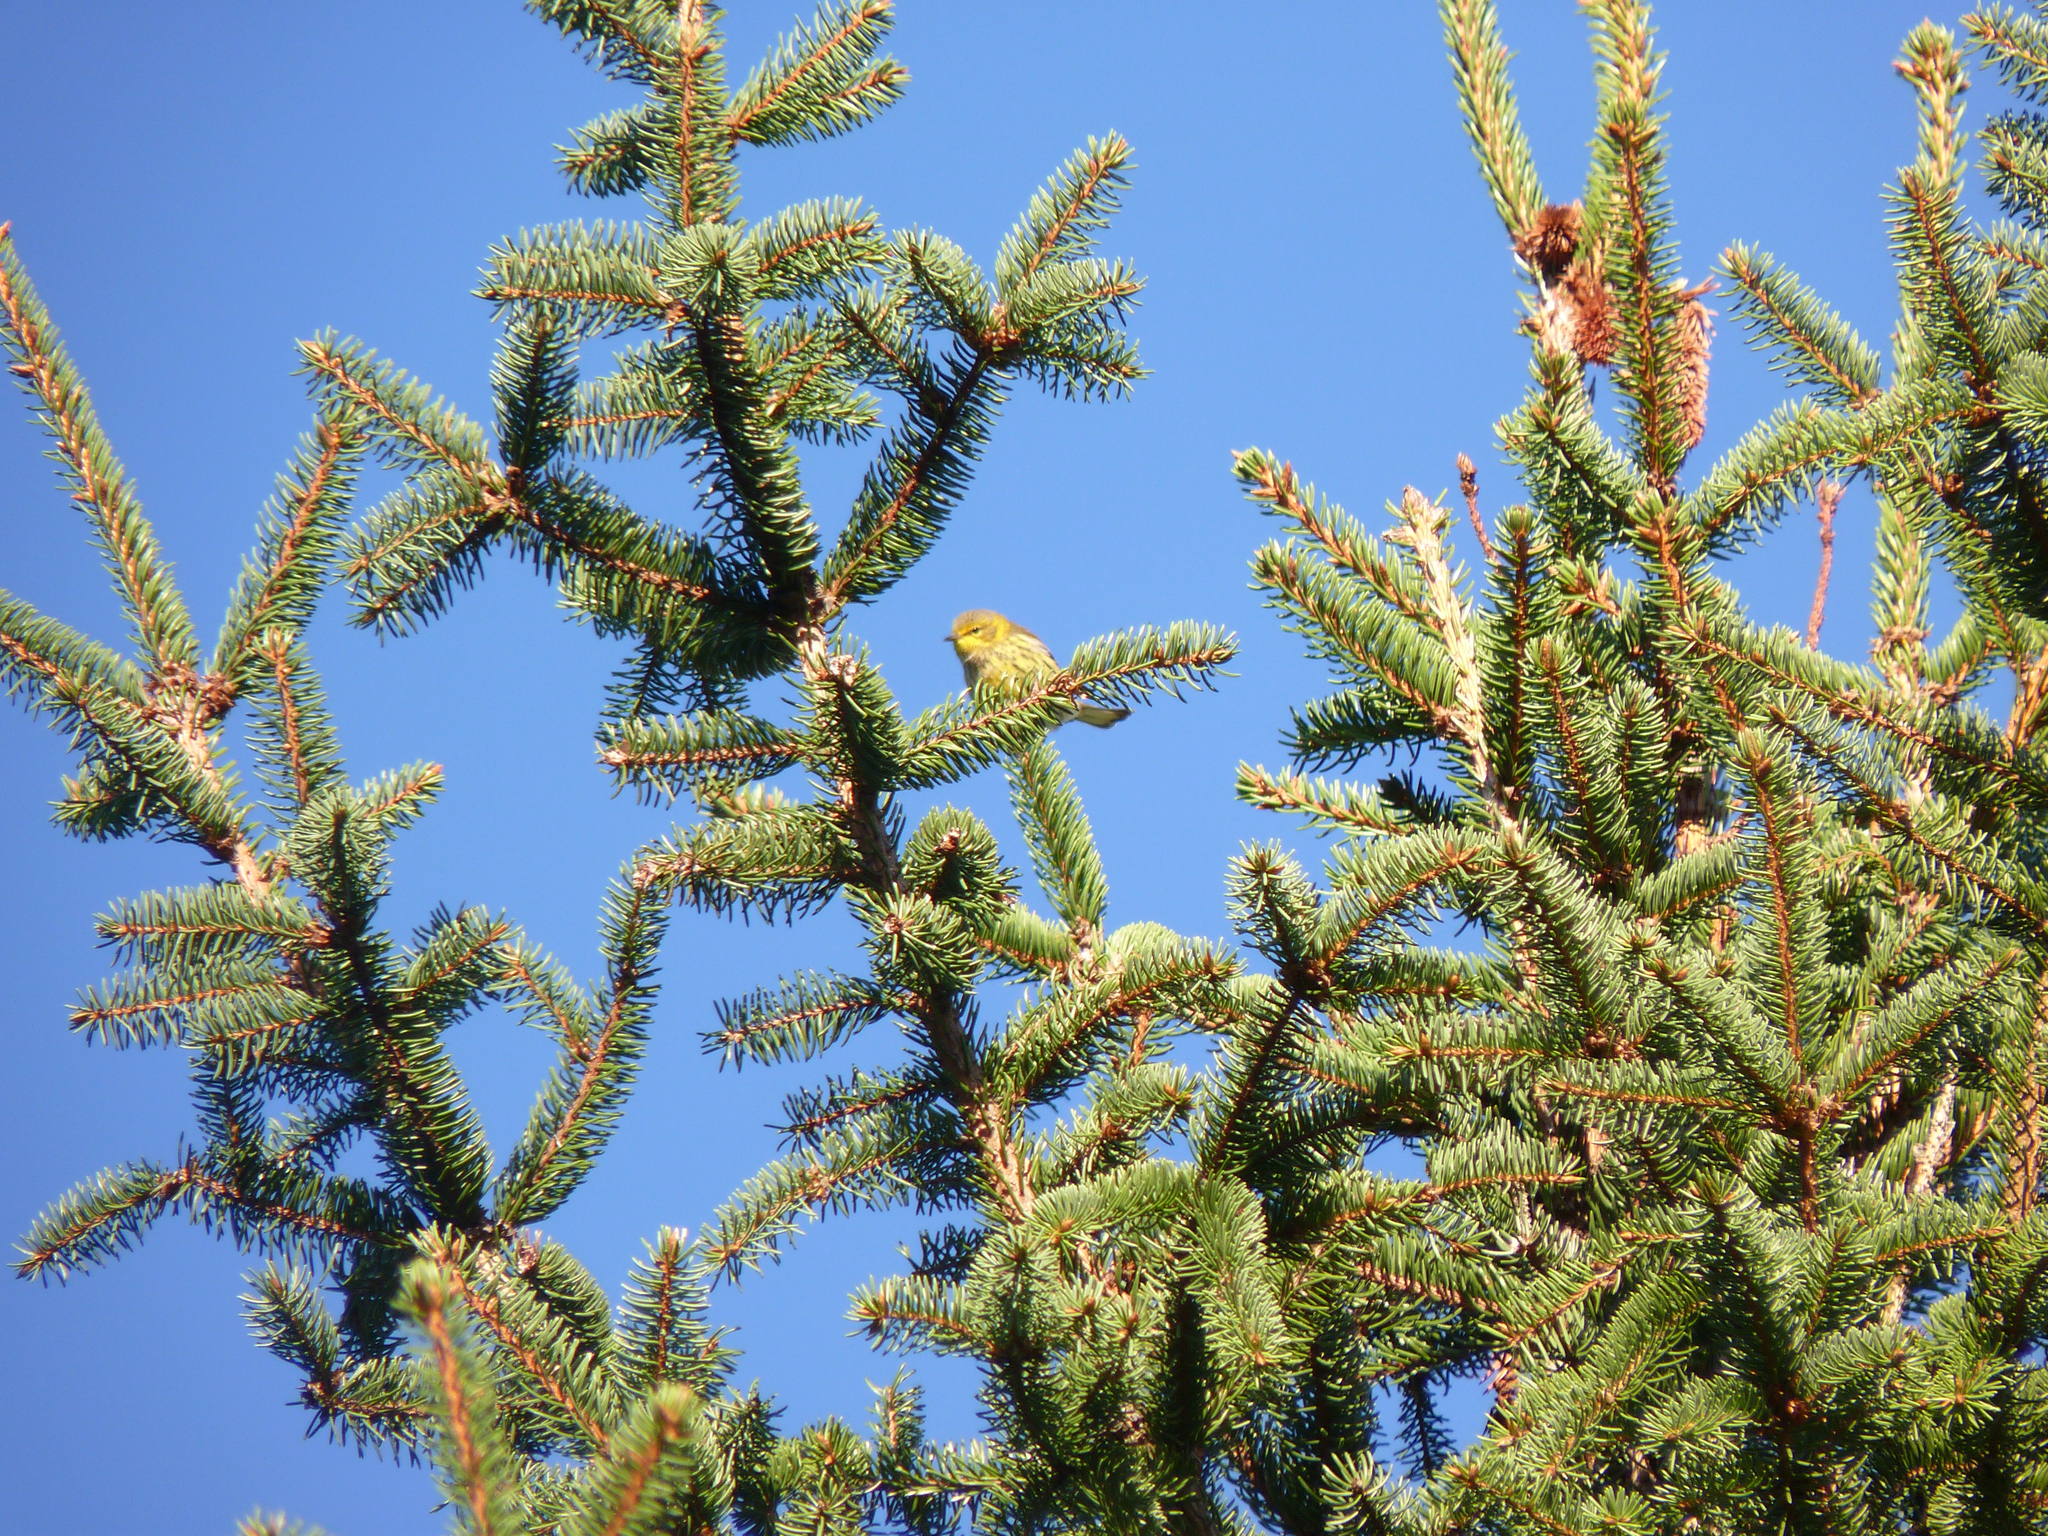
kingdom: Animalia
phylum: Chordata
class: Aves
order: Passeriformes
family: Parulidae
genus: Setophaga
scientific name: Setophaga tigrina
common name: Cape may warbler
